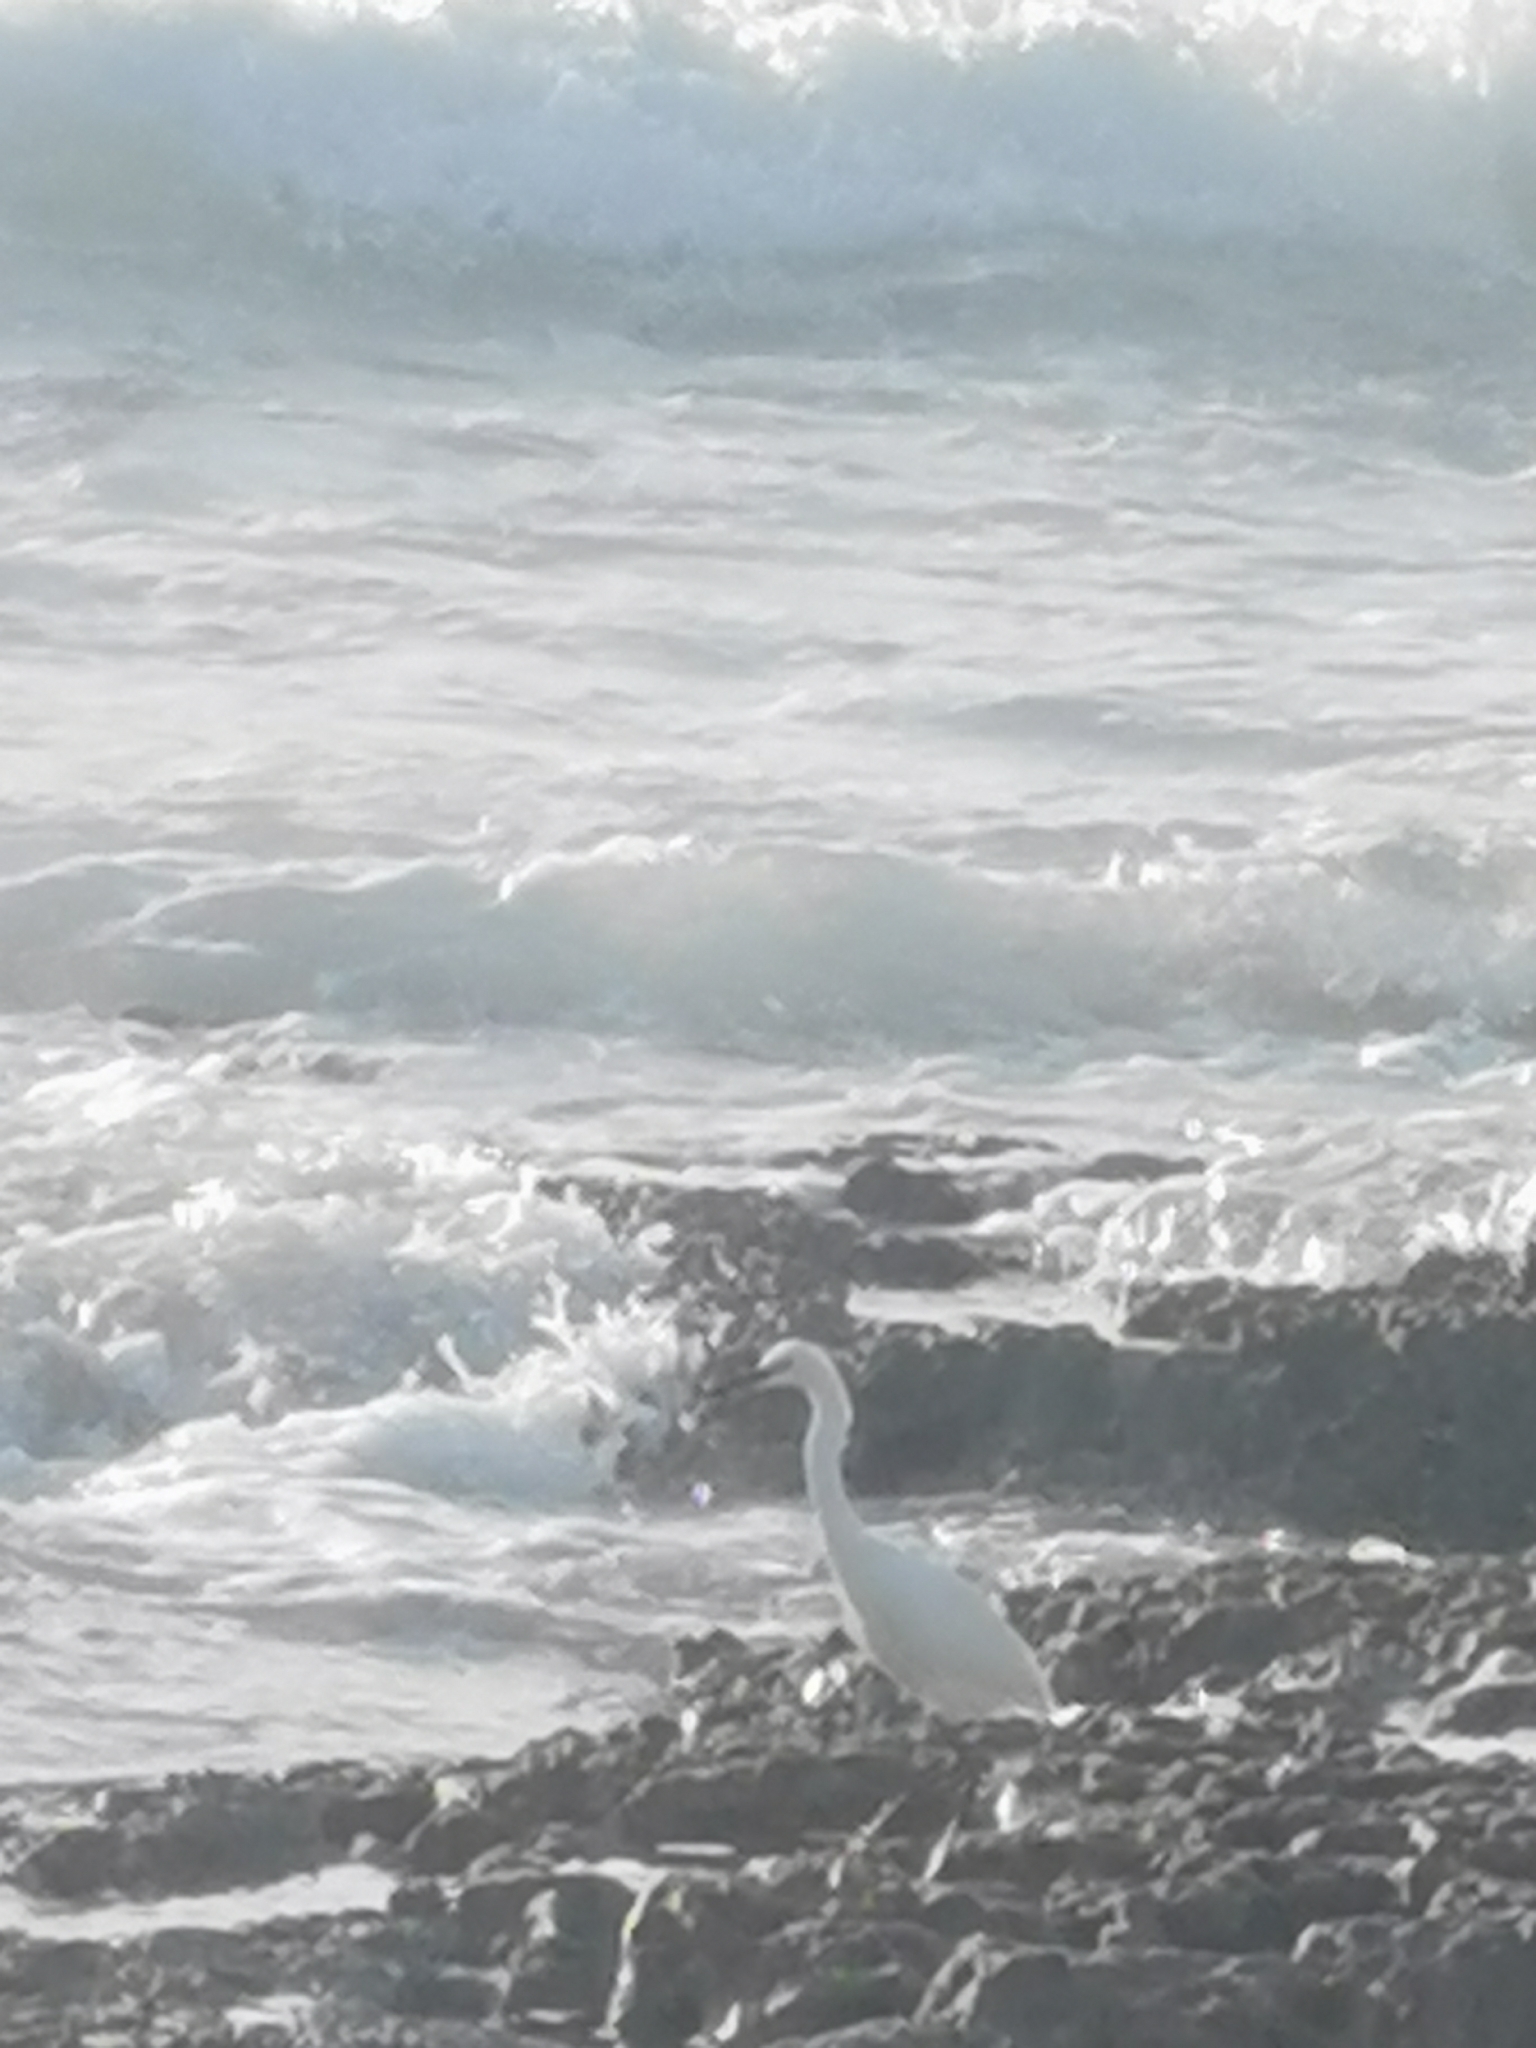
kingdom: Animalia
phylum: Chordata
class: Aves
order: Pelecaniformes
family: Ardeidae
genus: Egretta
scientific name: Egretta thula
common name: Snowy egret
